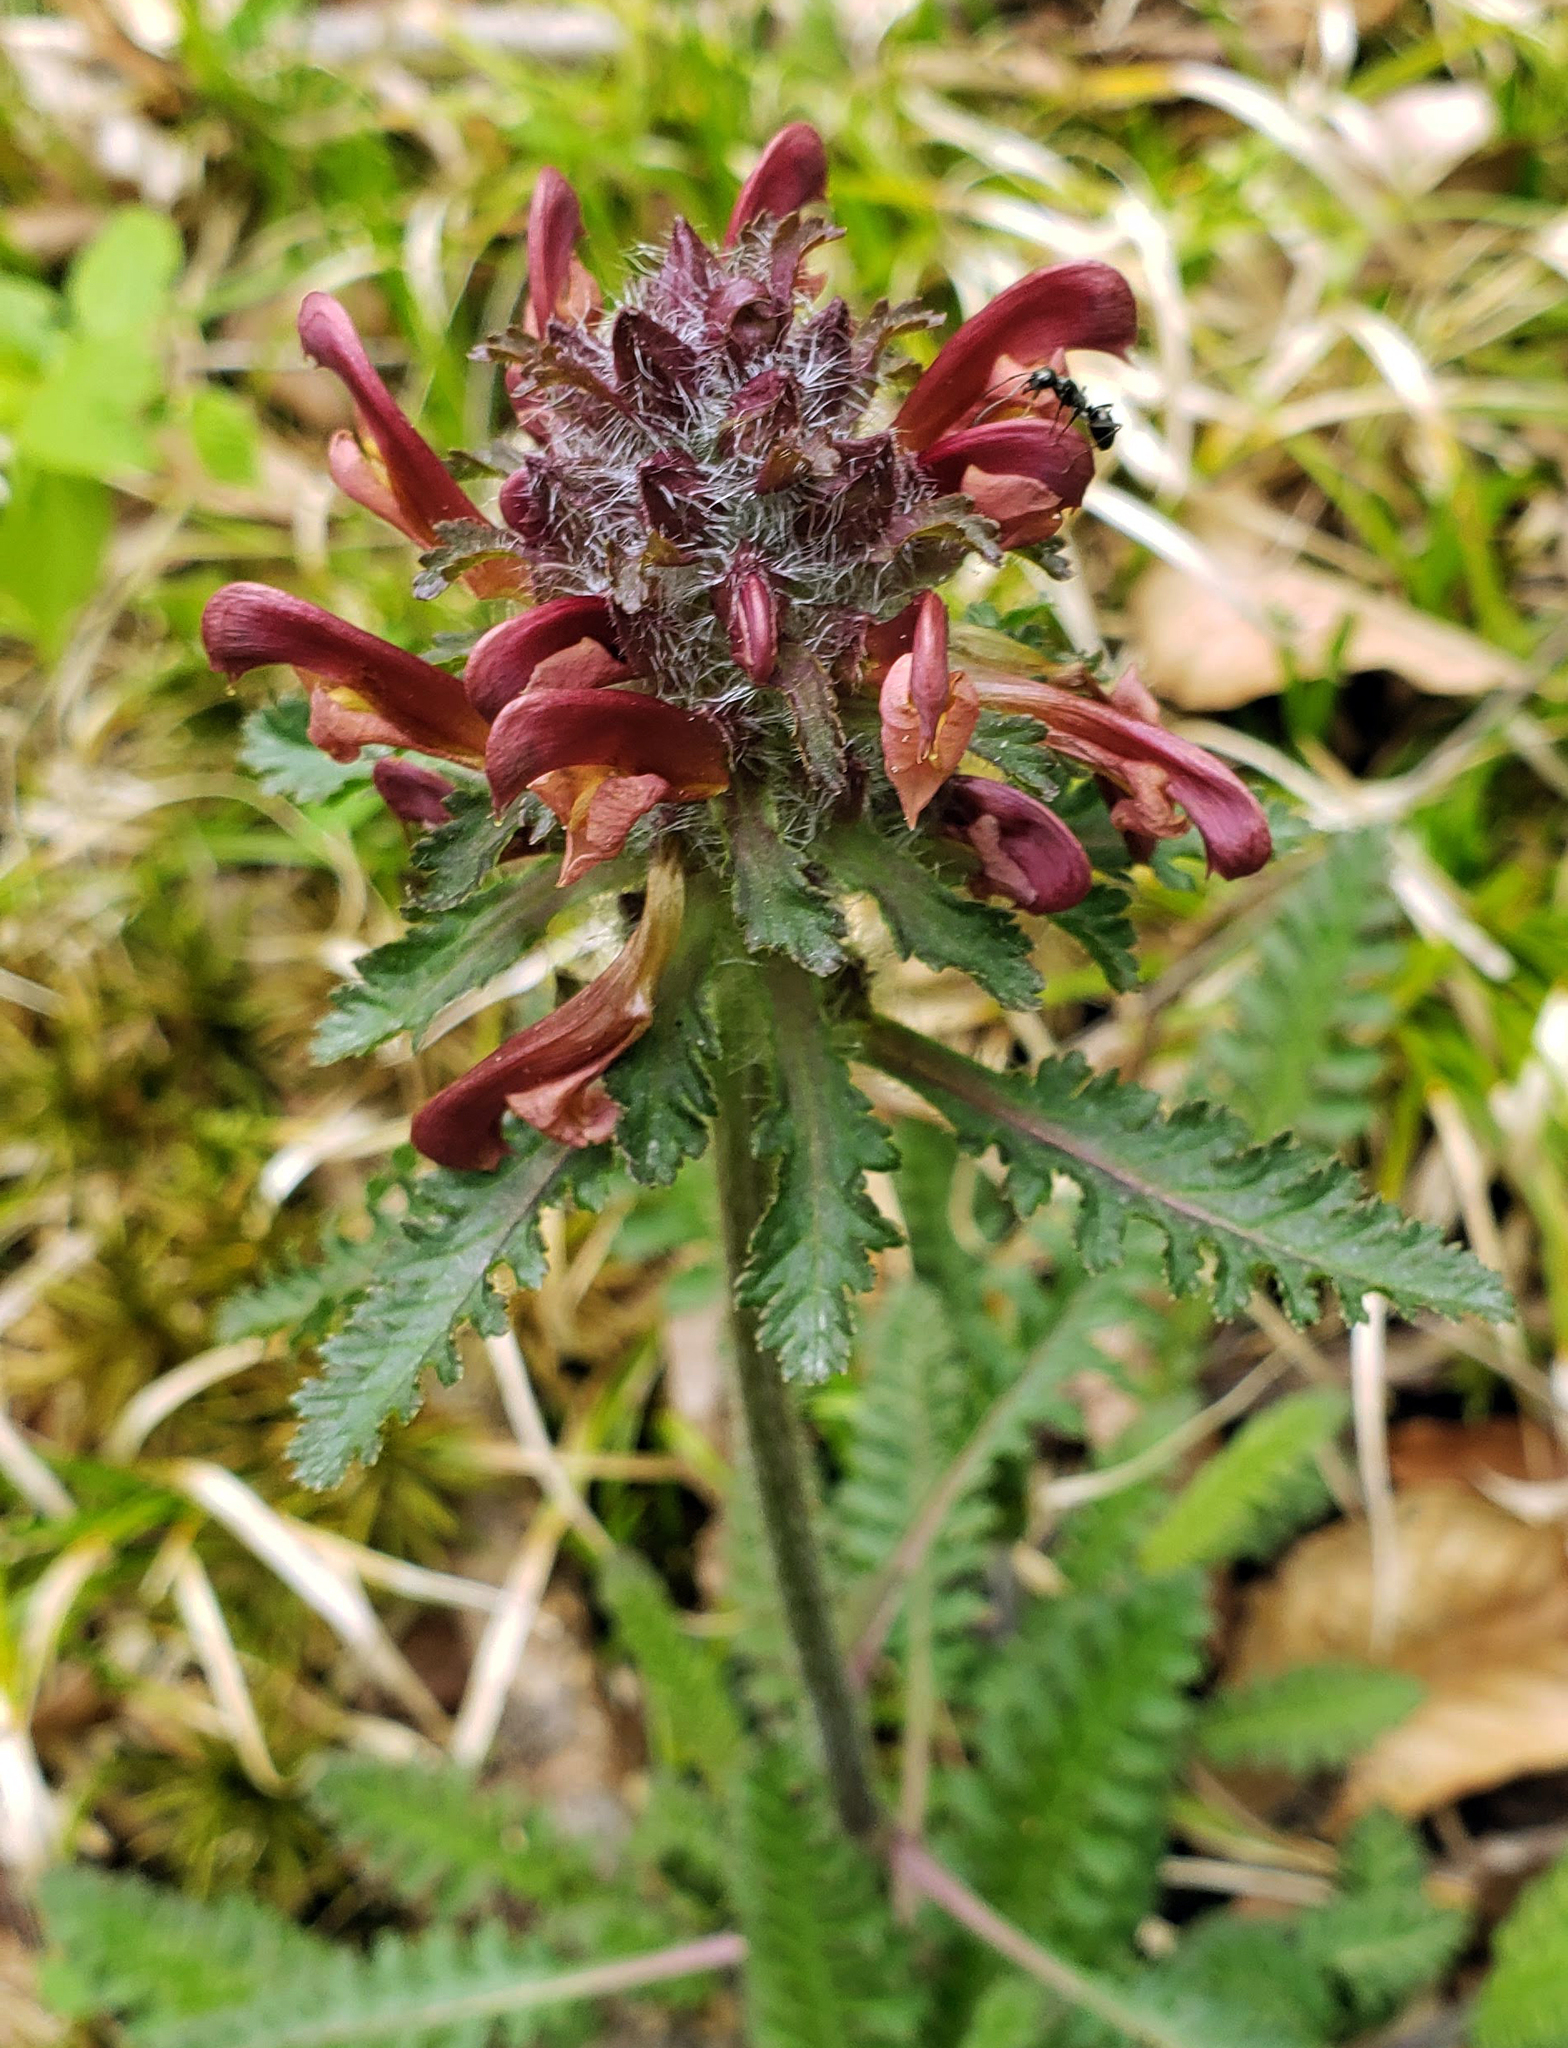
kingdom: Plantae
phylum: Tracheophyta
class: Magnoliopsida
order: Lamiales
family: Orobanchaceae
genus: Pedicularis
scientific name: Pedicularis canadensis
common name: Early lousewort
